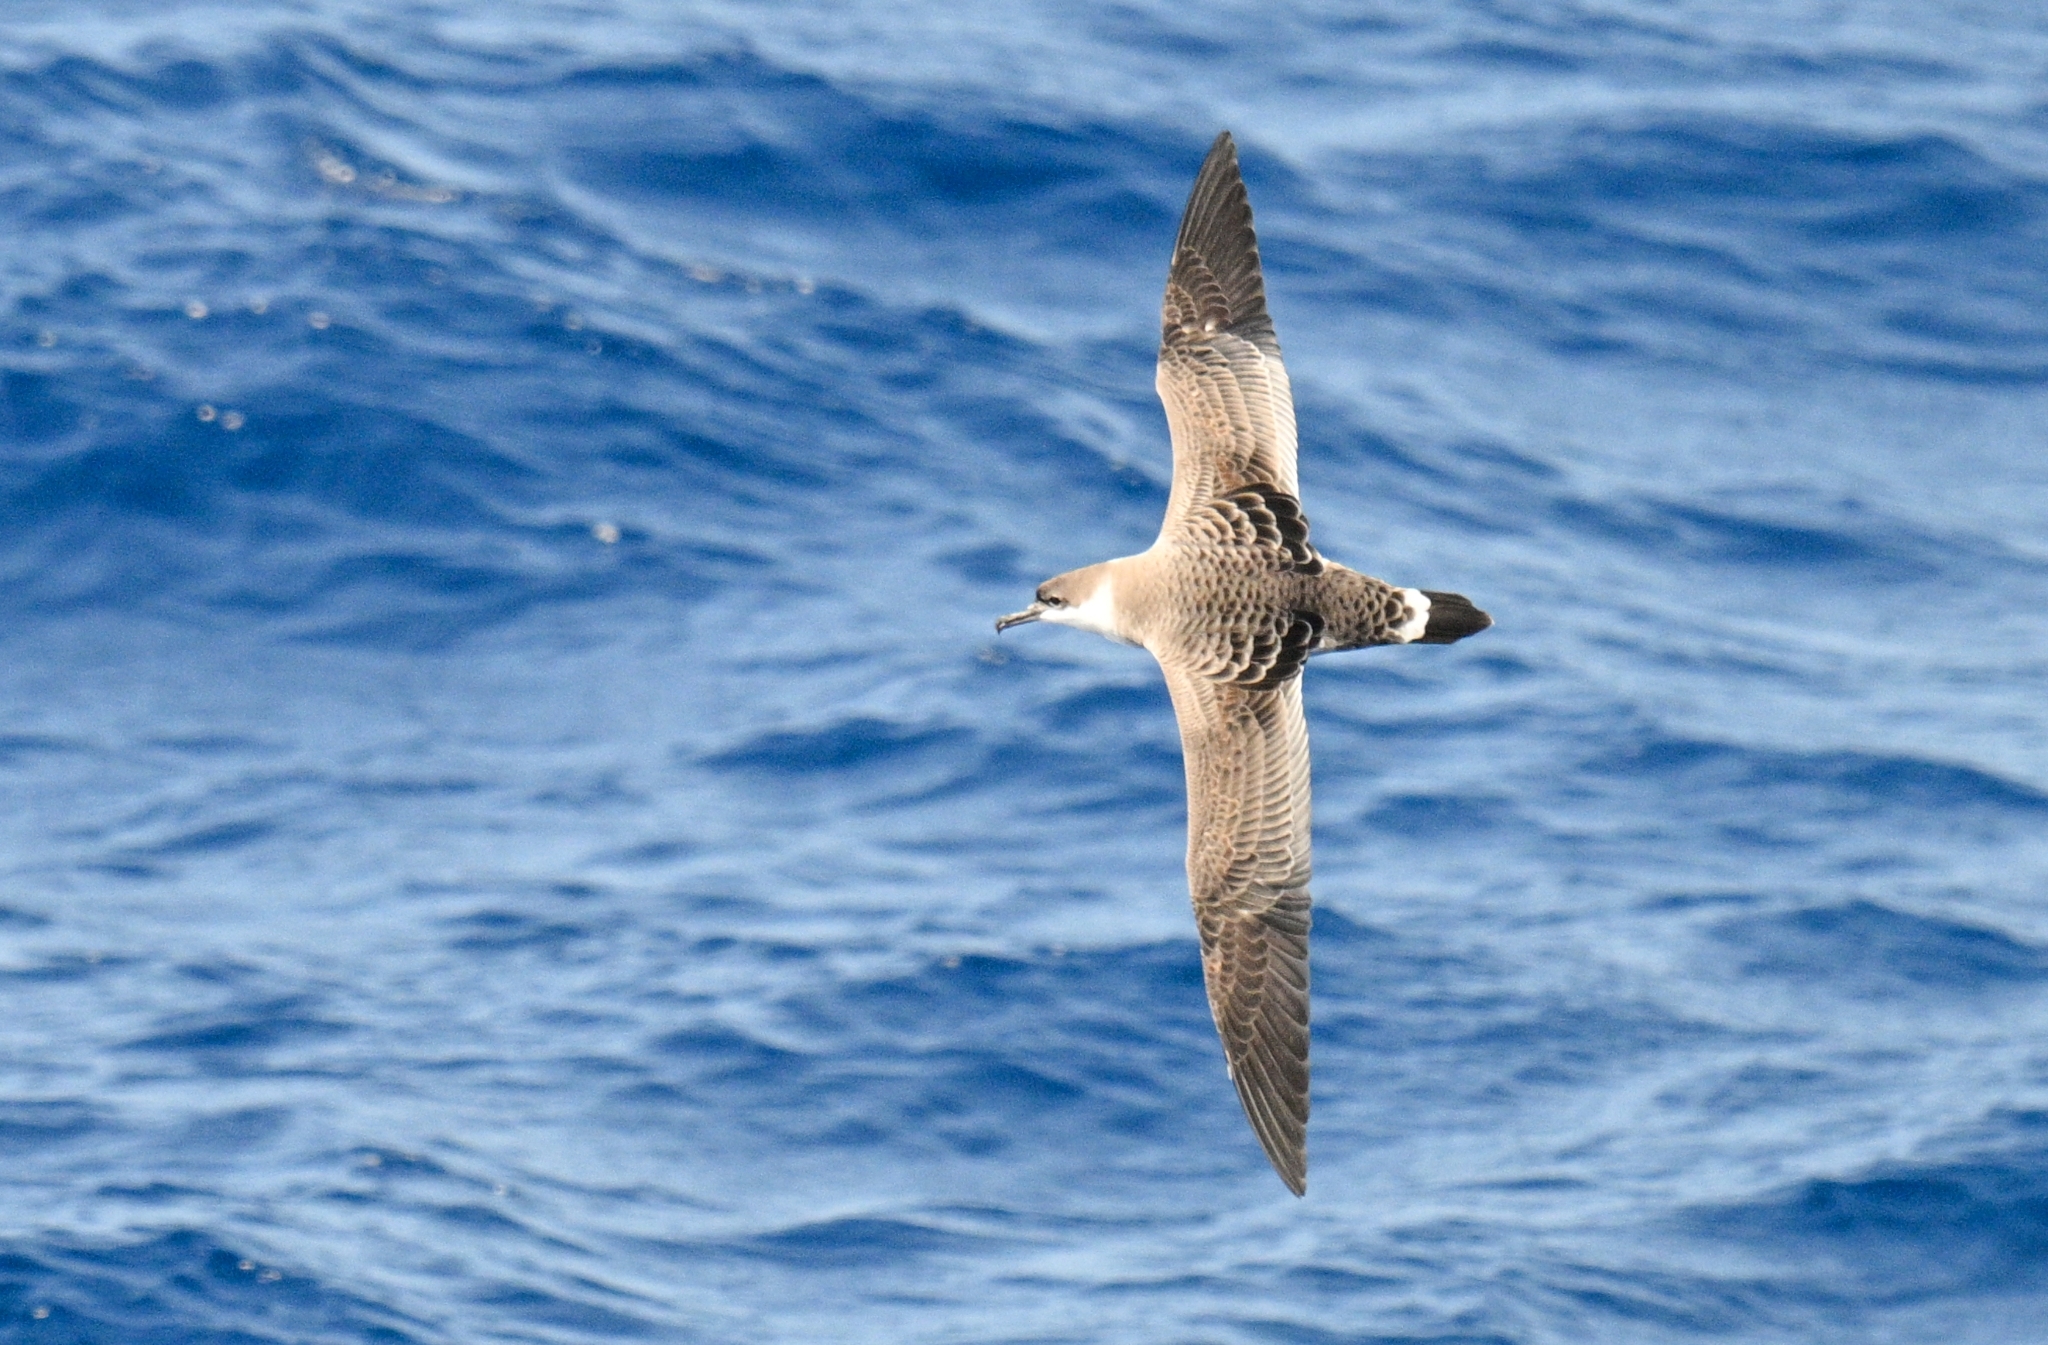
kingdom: Animalia
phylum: Chordata
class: Aves
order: Procellariiformes
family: Procellariidae
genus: Puffinus
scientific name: Puffinus gravis
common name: Great shearwater
